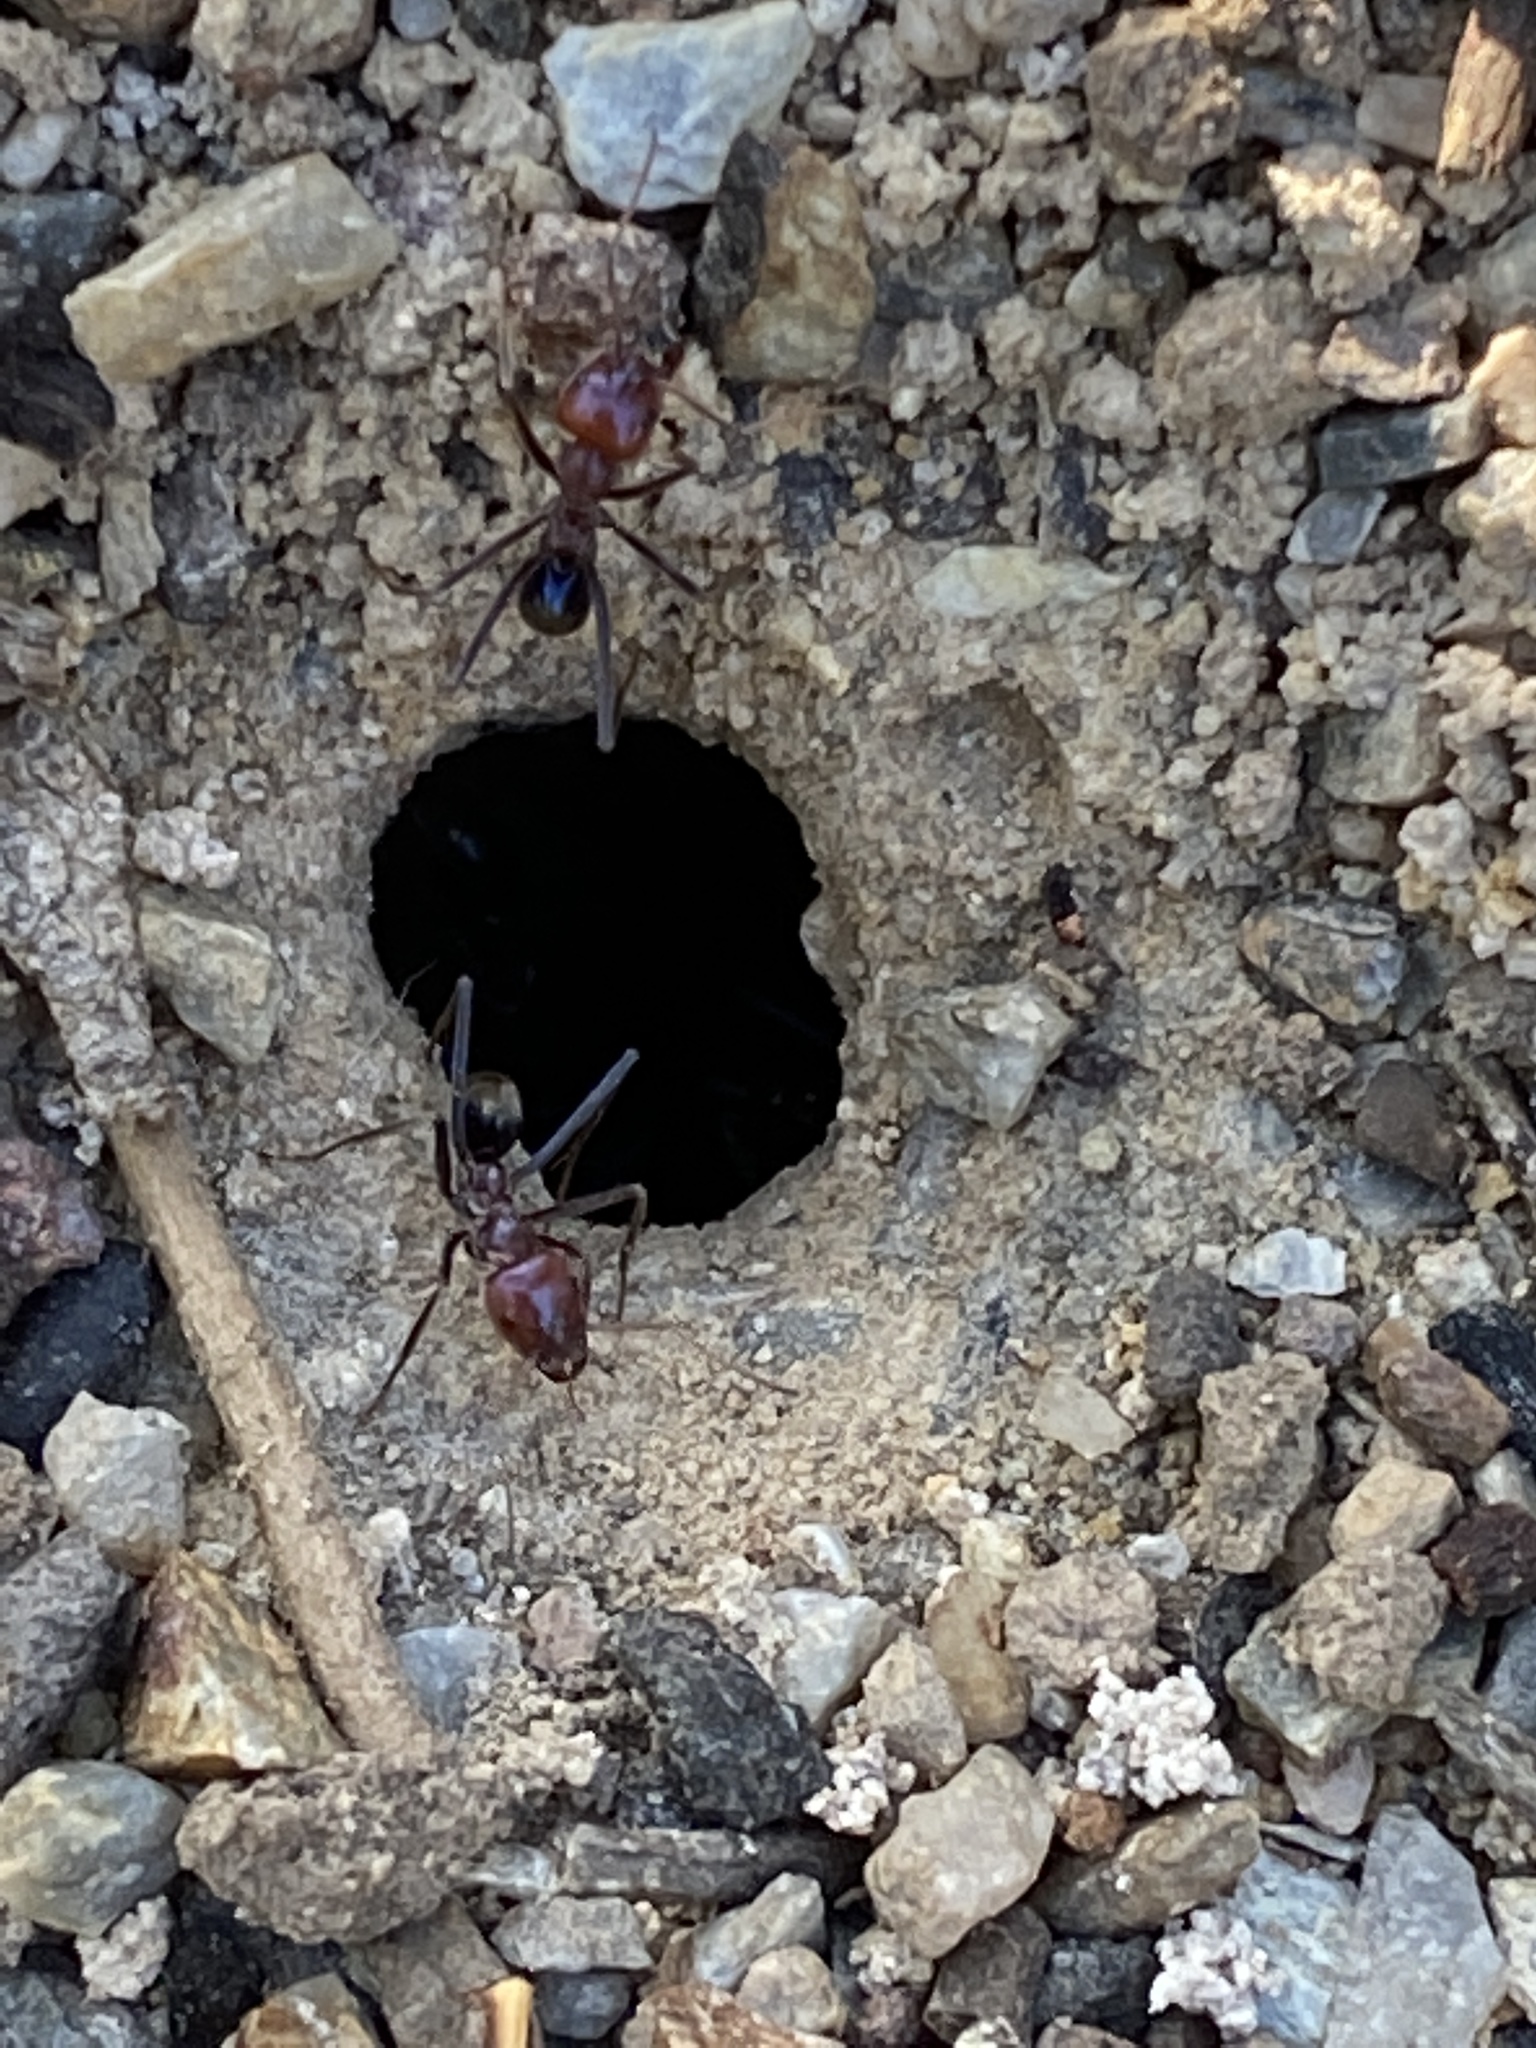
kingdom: Animalia
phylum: Arthropoda
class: Insecta
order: Hymenoptera
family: Formicidae
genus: Iridomyrmex
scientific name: Iridomyrmex purpureus
